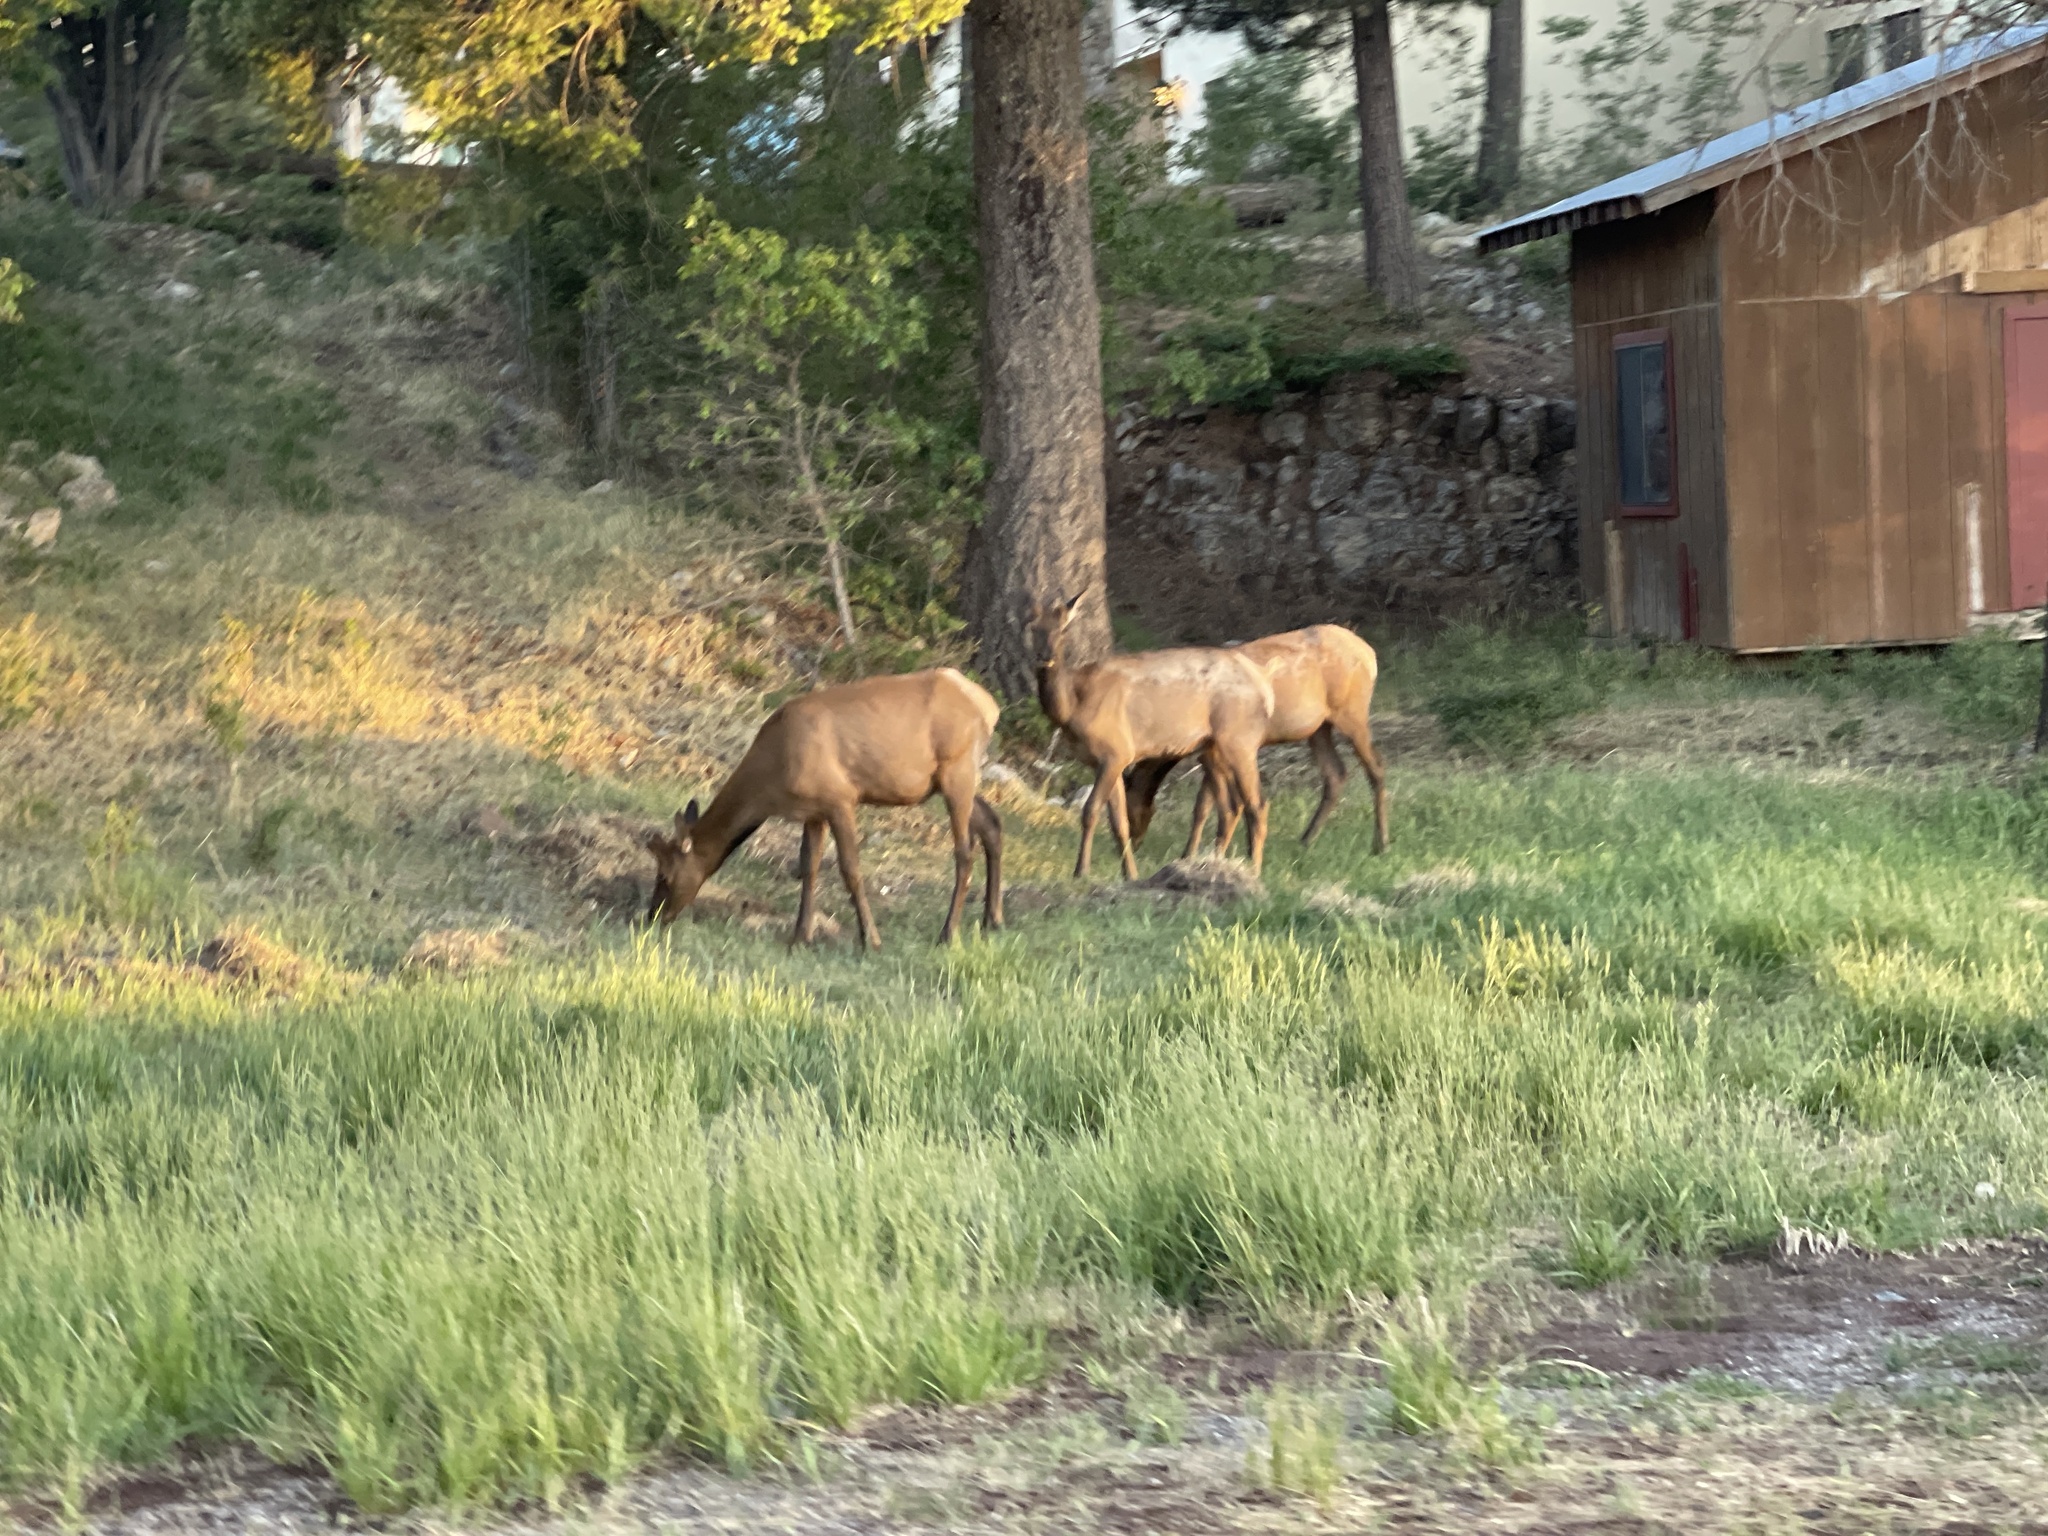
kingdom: Animalia
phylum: Chordata
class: Mammalia
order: Artiodactyla
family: Cervidae
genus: Cervus
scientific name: Cervus elaphus
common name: Red deer
